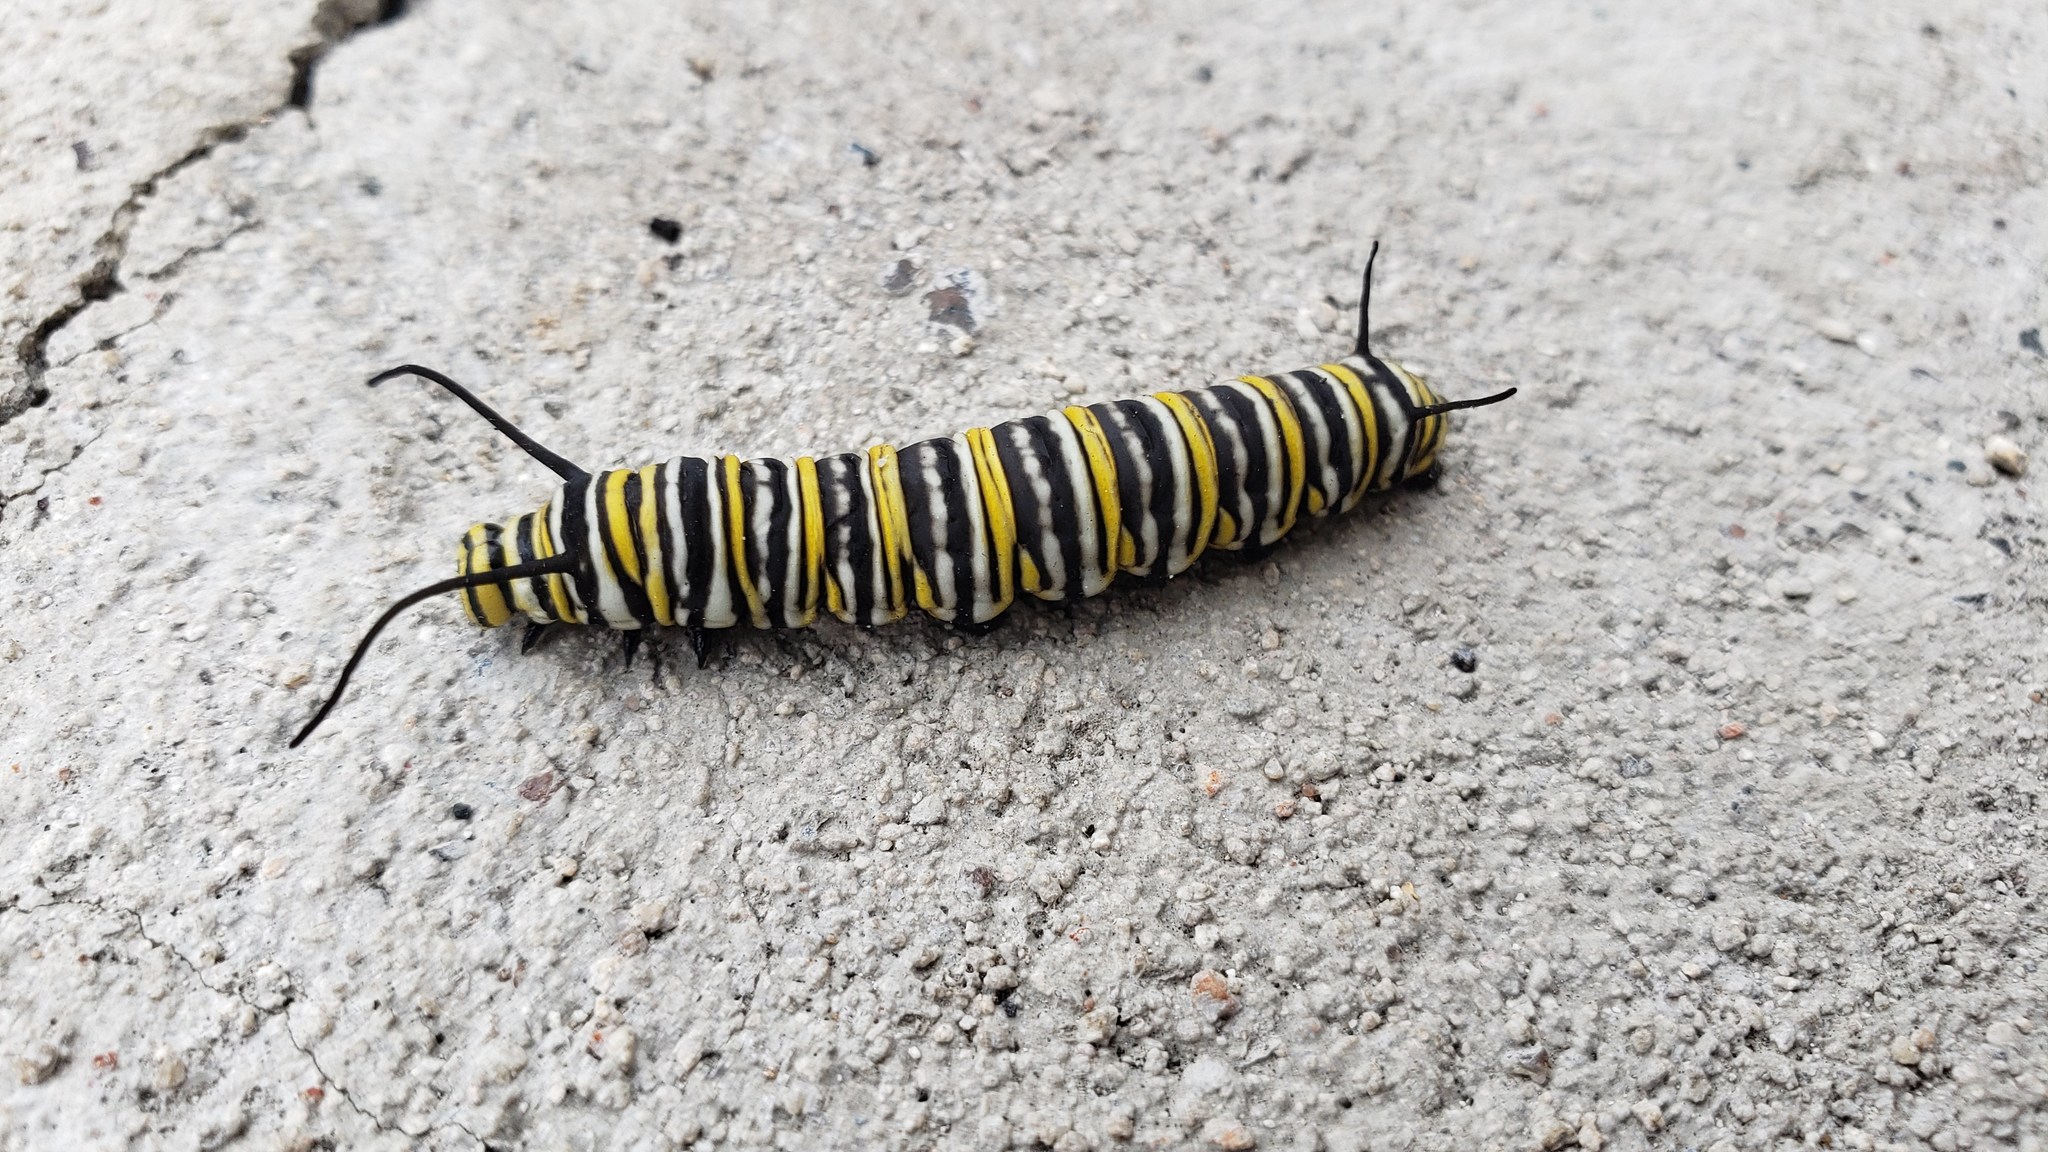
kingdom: Animalia
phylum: Arthropoda
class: Insecta
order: Lepidoptera
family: Nymphalidae
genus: Danaus
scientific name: Danaus plexippus
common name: Monarch
